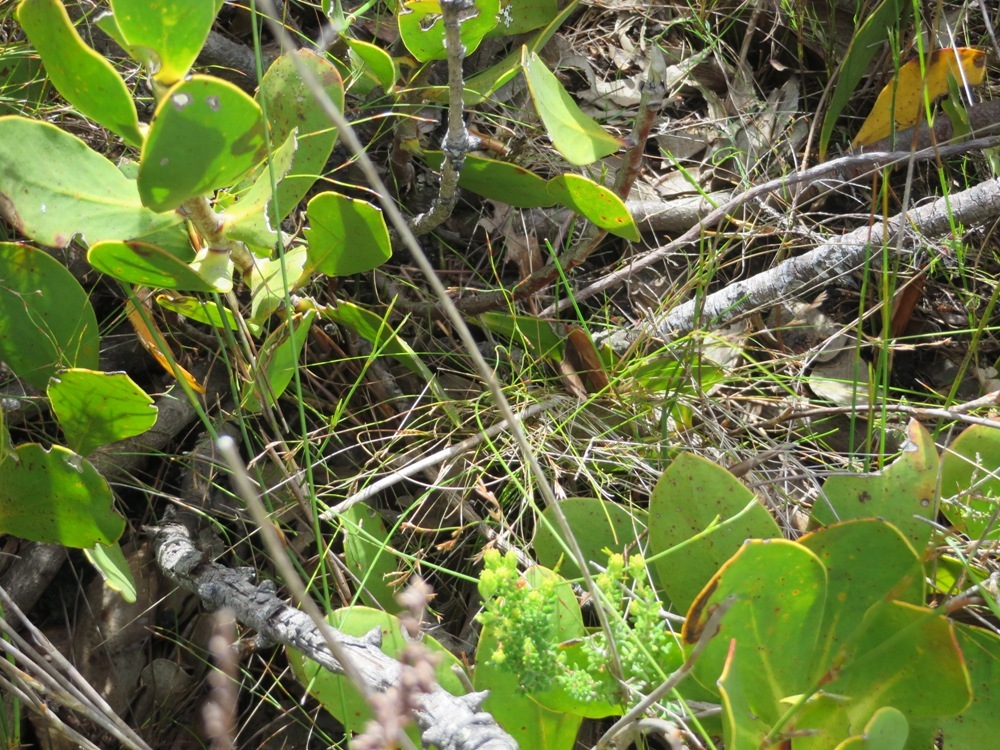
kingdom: Plantae
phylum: Tracheophyta
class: Magnoliopsida
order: Proteales
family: Proteaceae
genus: Protea
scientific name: Protea speciosa
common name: Brown-beard sugarbush
